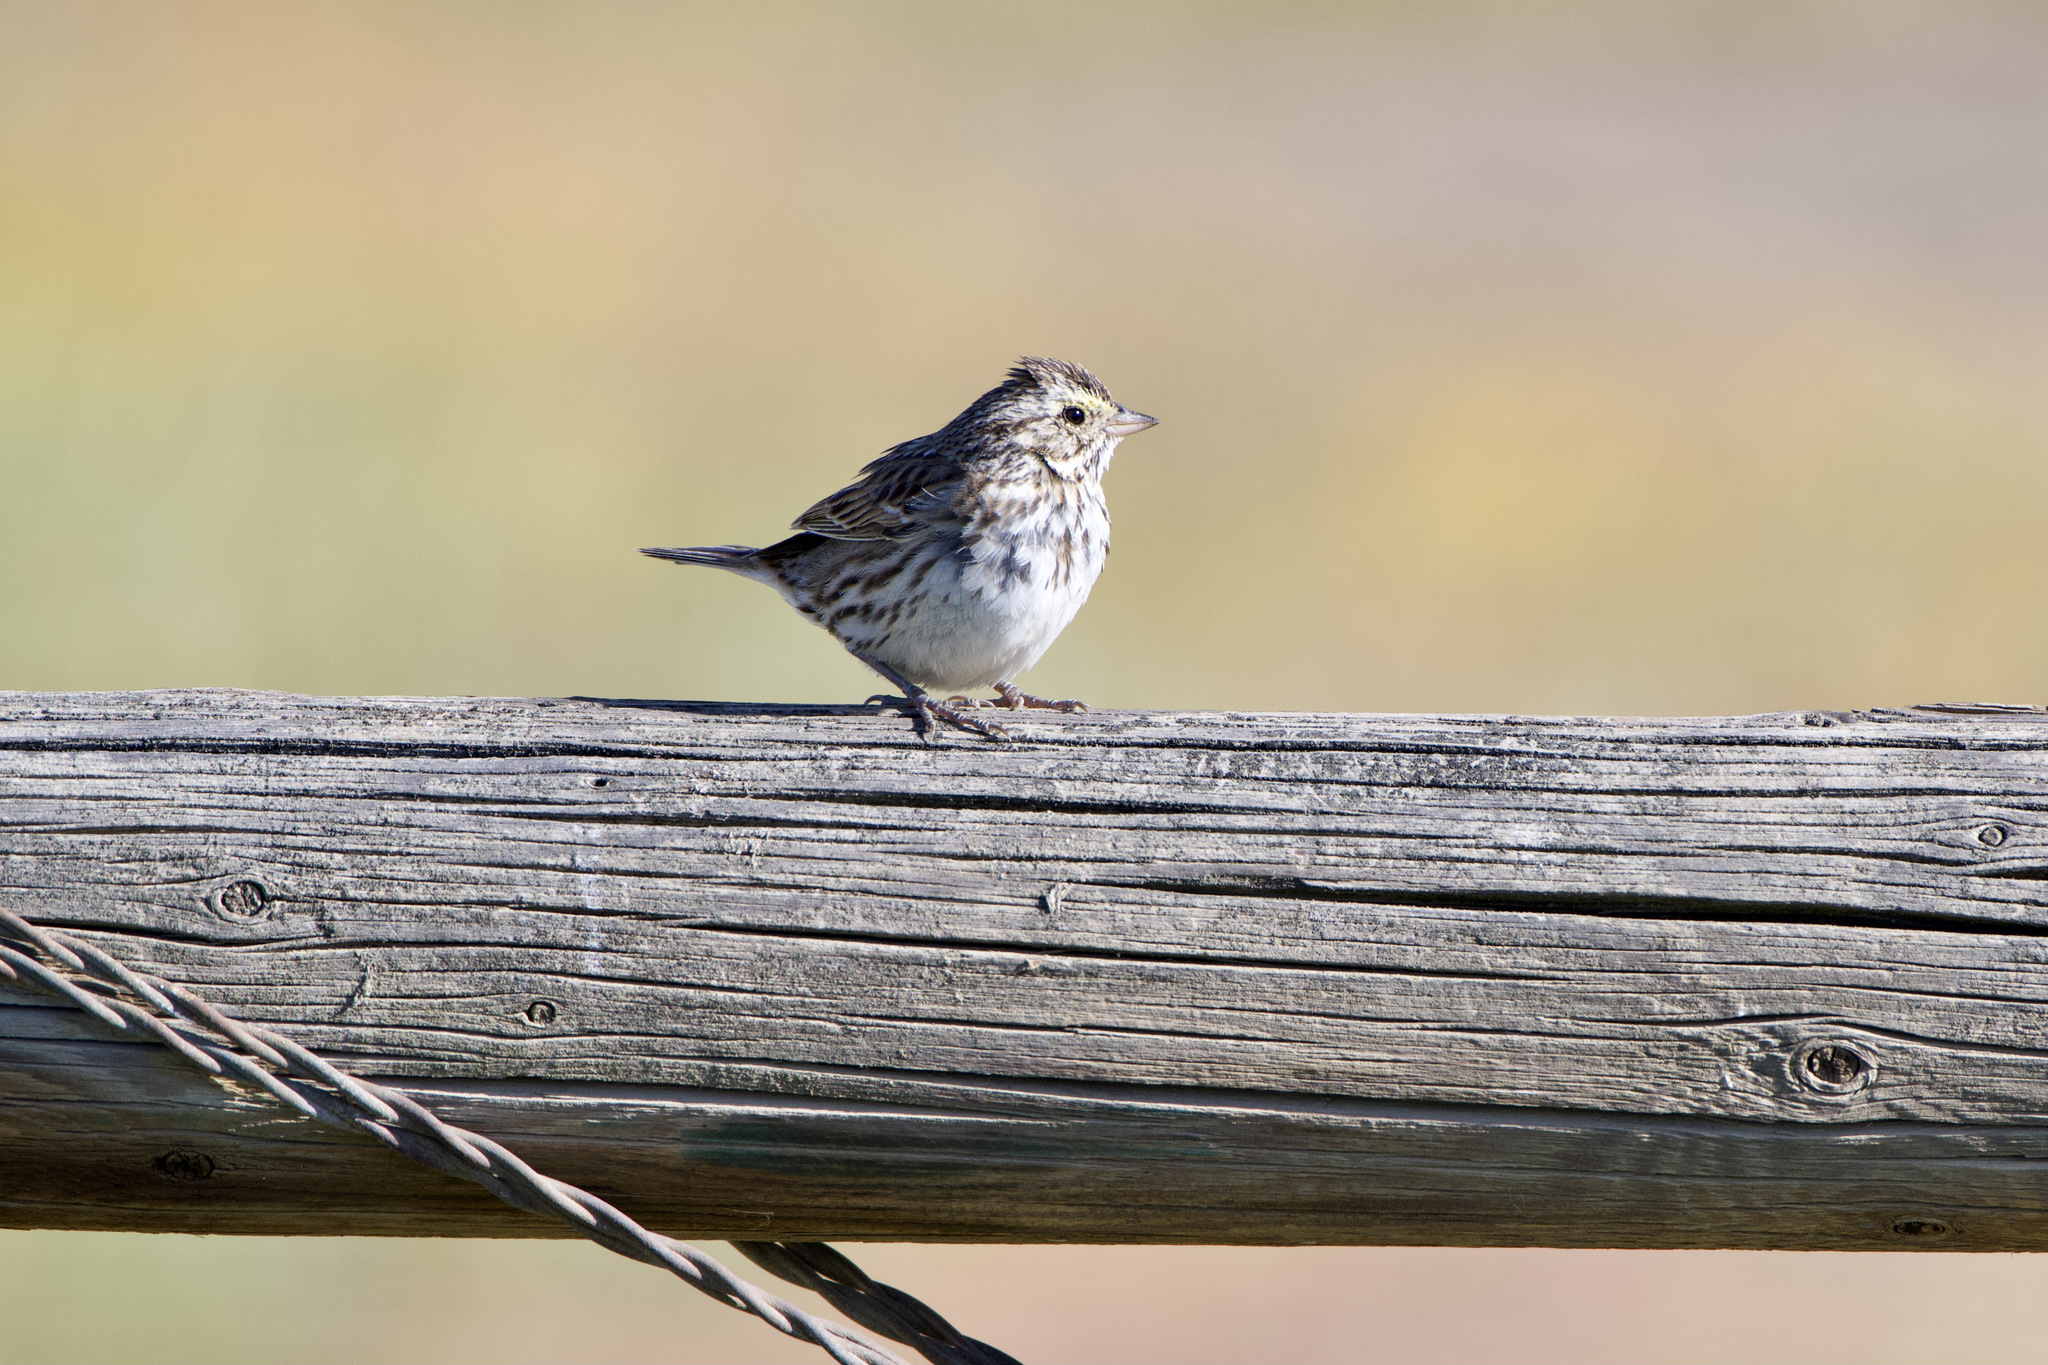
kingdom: Animalia
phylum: Chordata
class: Aves
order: Passeriformes
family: Passerellidae
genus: Passerculus
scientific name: Passerculus sandwichensis
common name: Savannah sparrow
